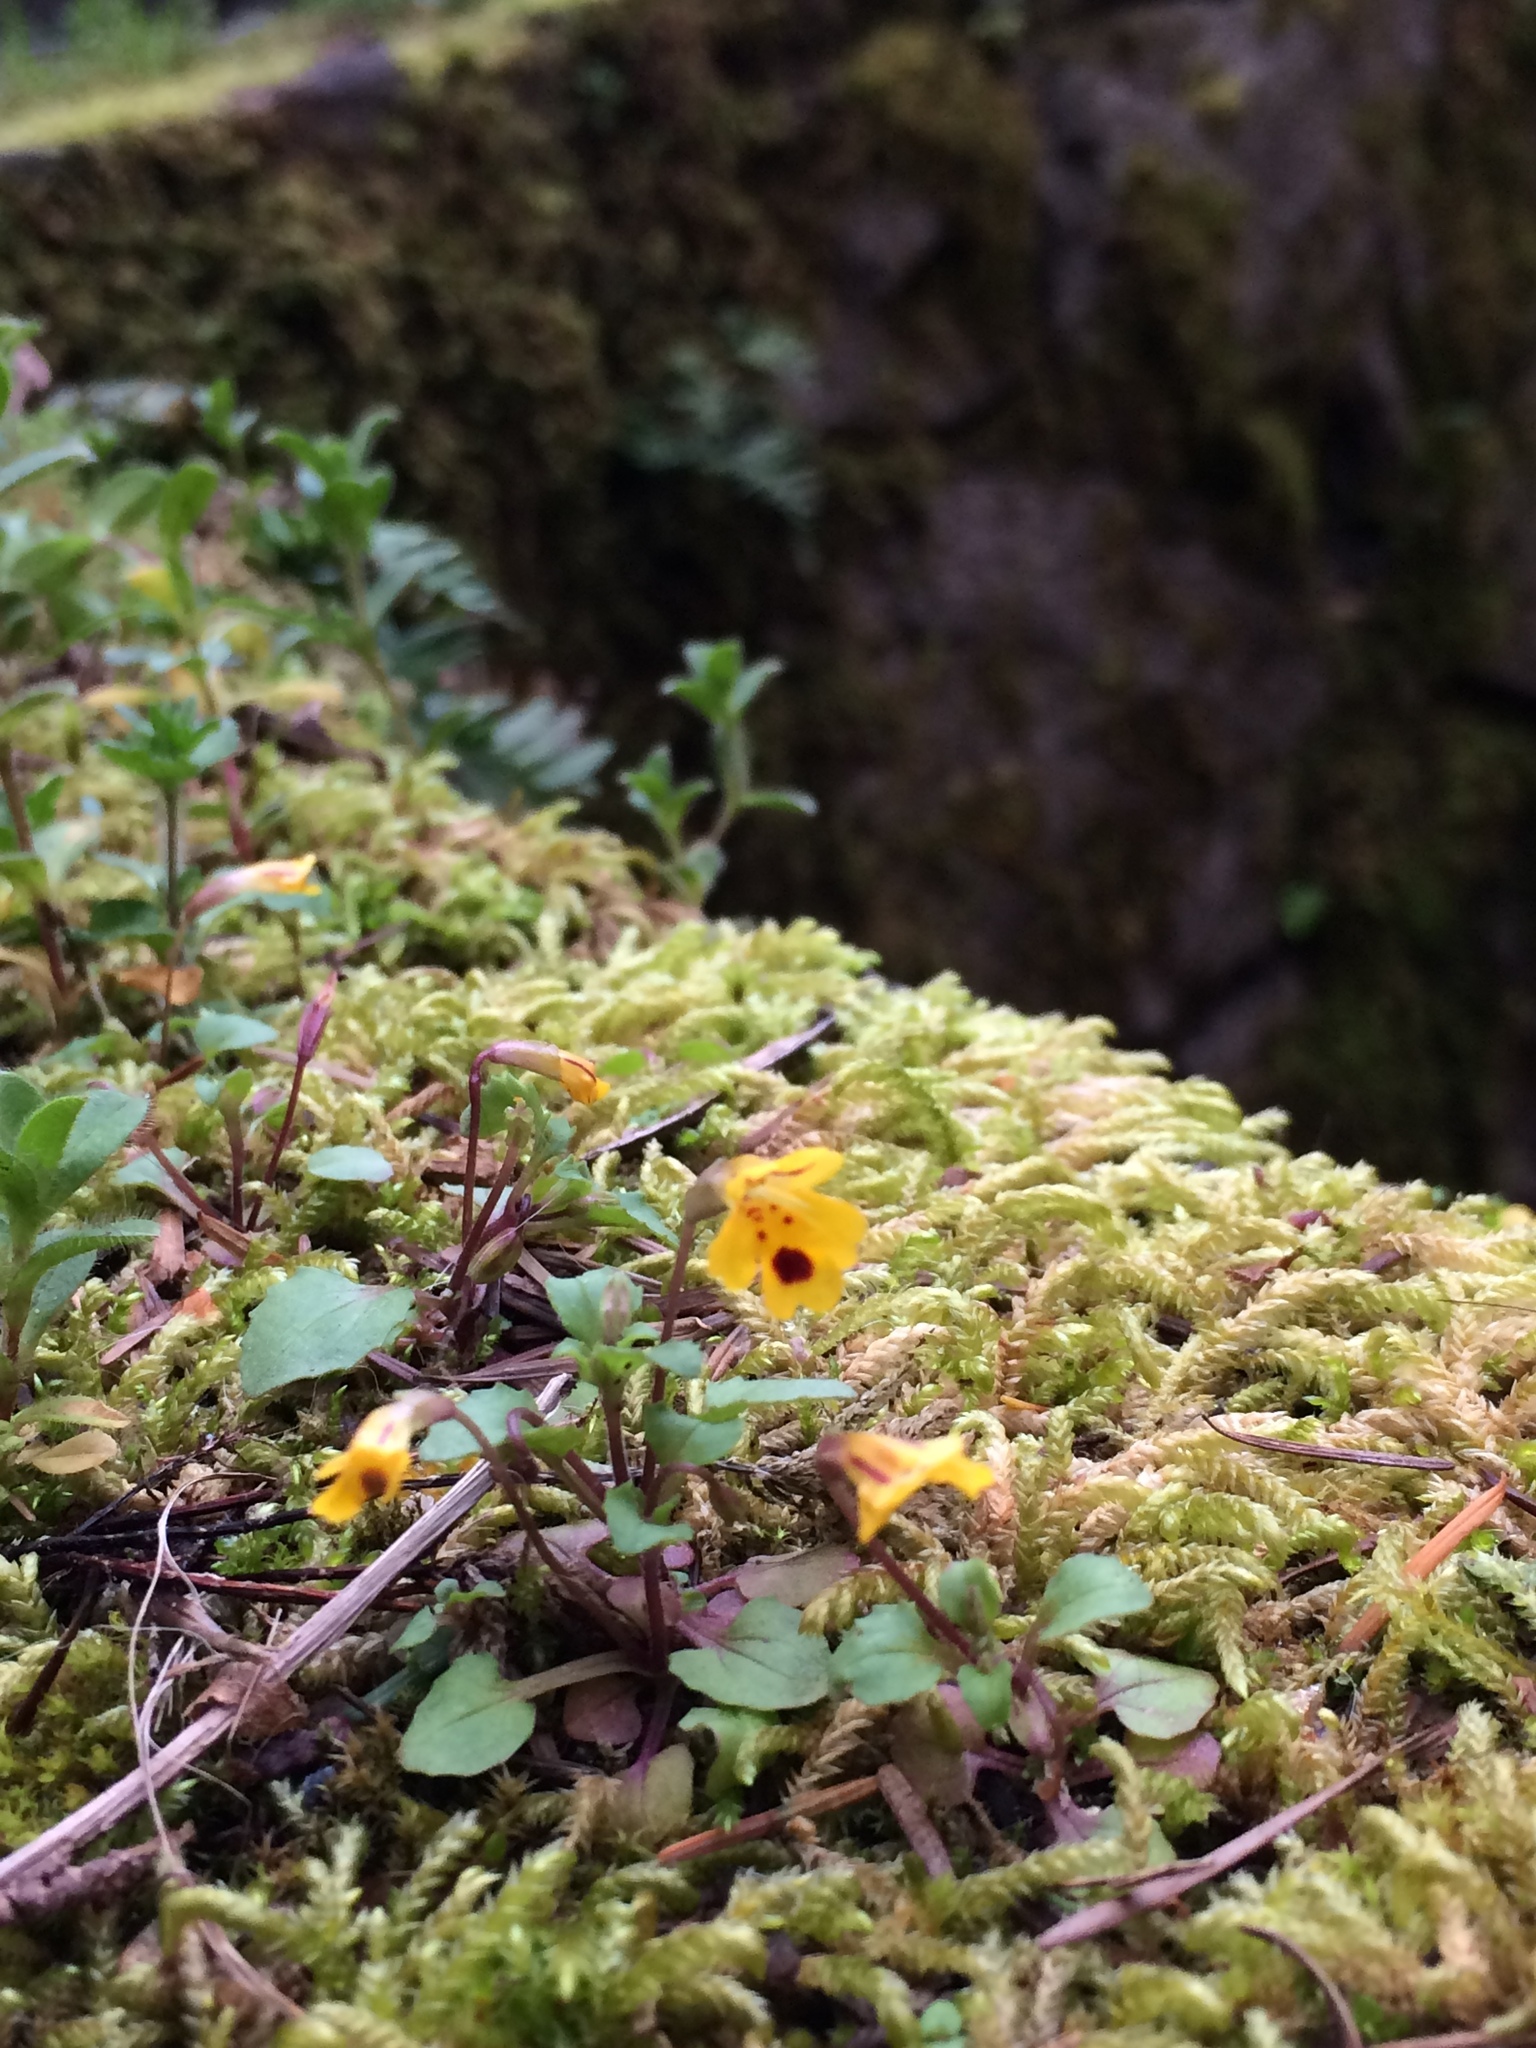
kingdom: Plantae
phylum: Tracheophyta
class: Magnoliopsida
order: Lamiales
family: Phrymaceae
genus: Erythranthe
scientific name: Erythranthe alsinoides
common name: Chickweed monkeyflower
